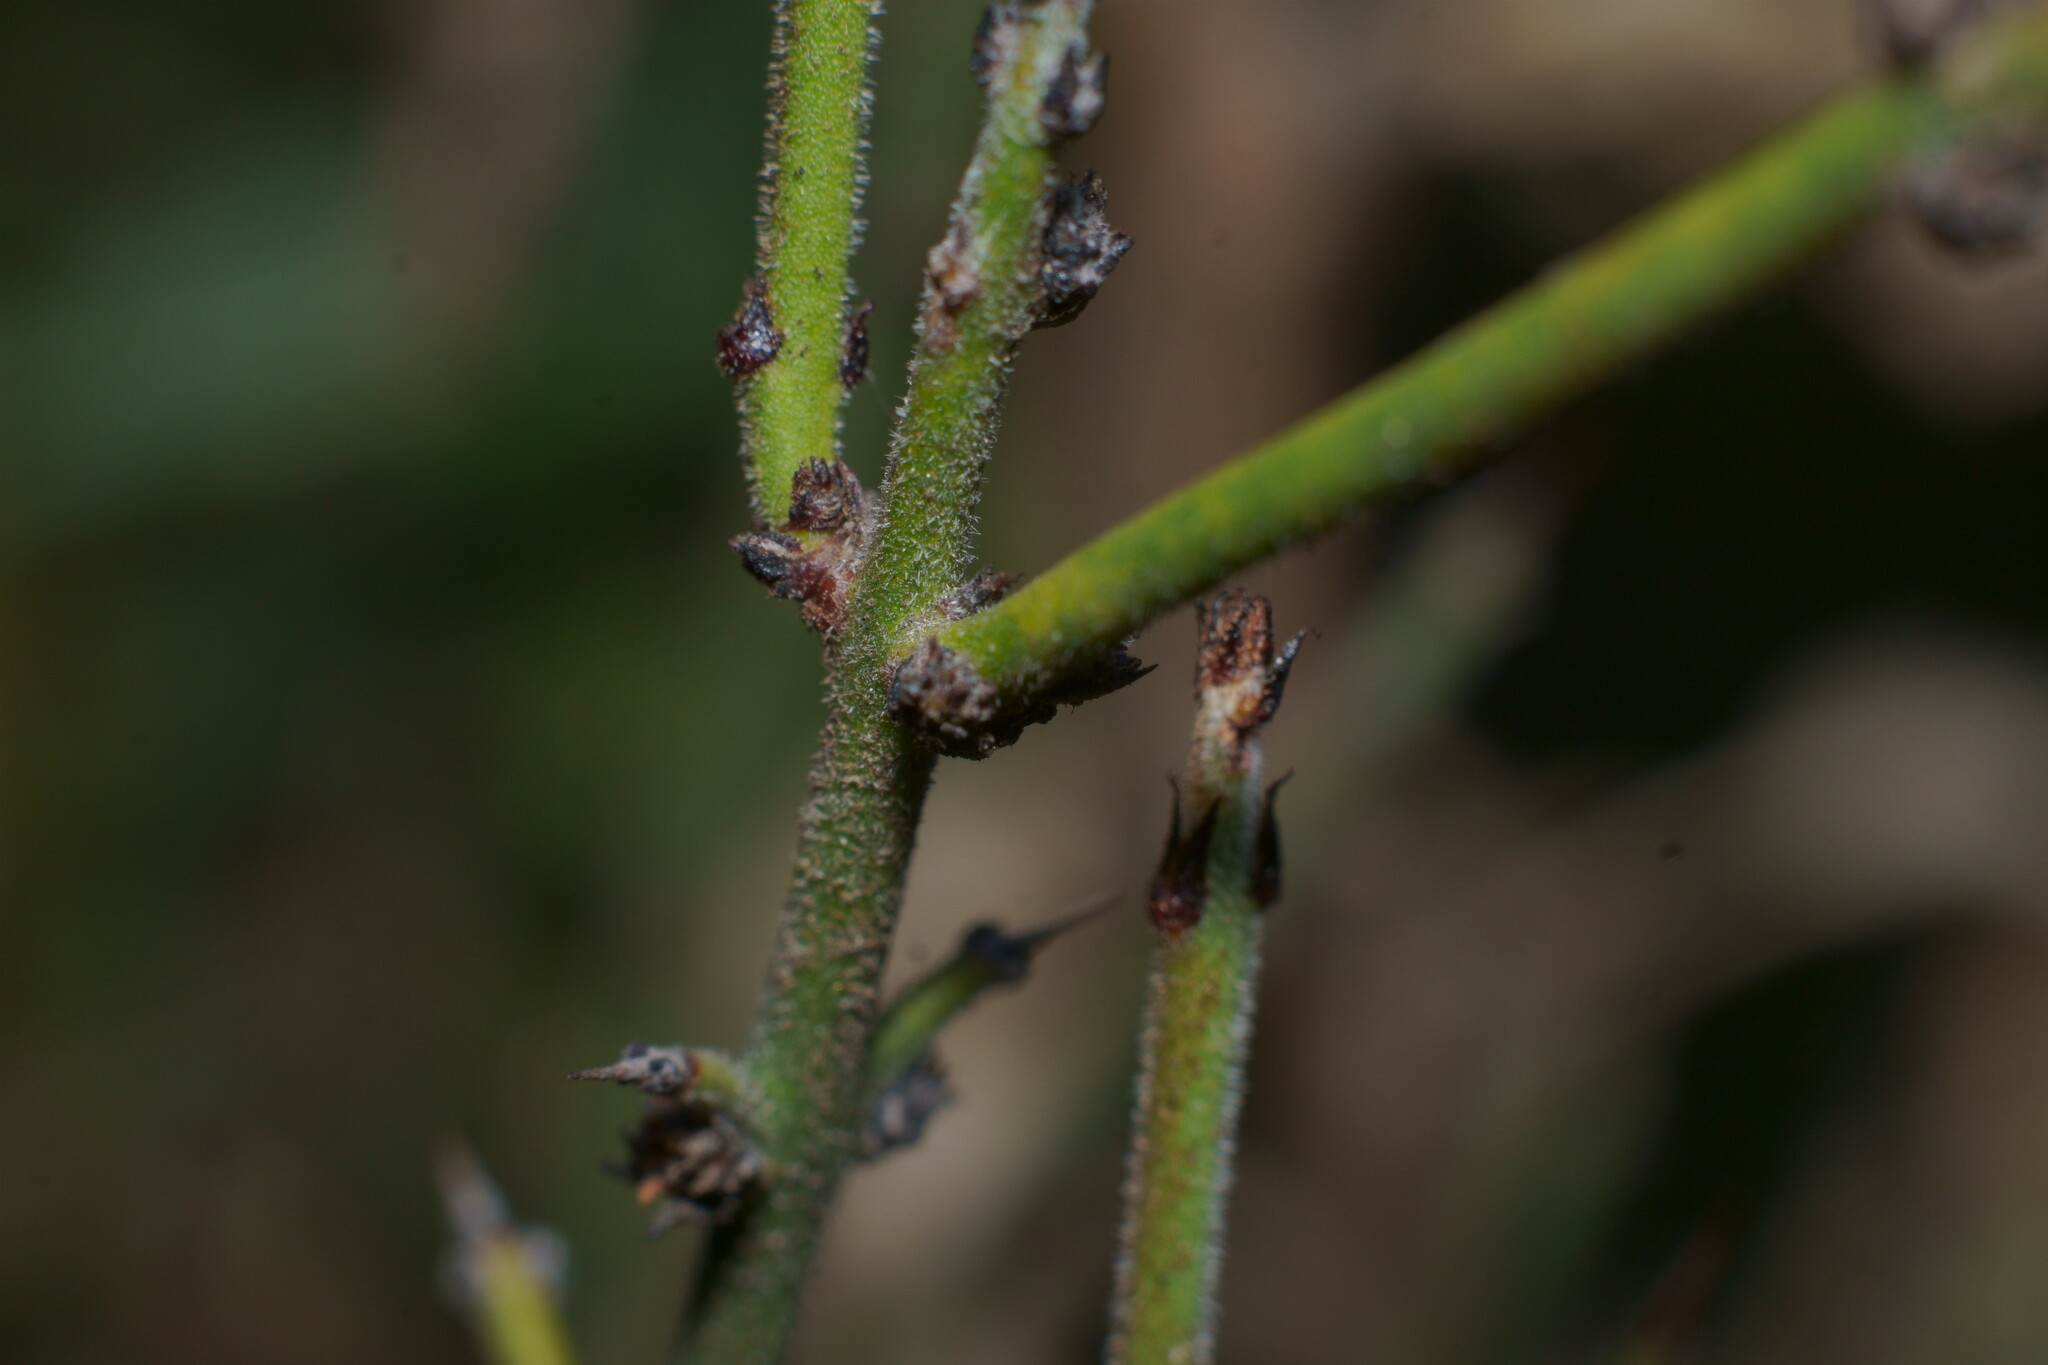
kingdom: Plantae
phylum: Tracheophyta
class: Magnoliopsida
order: Rosales
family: Rhamnaceae
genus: Adolphia
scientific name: Adolphia californica
